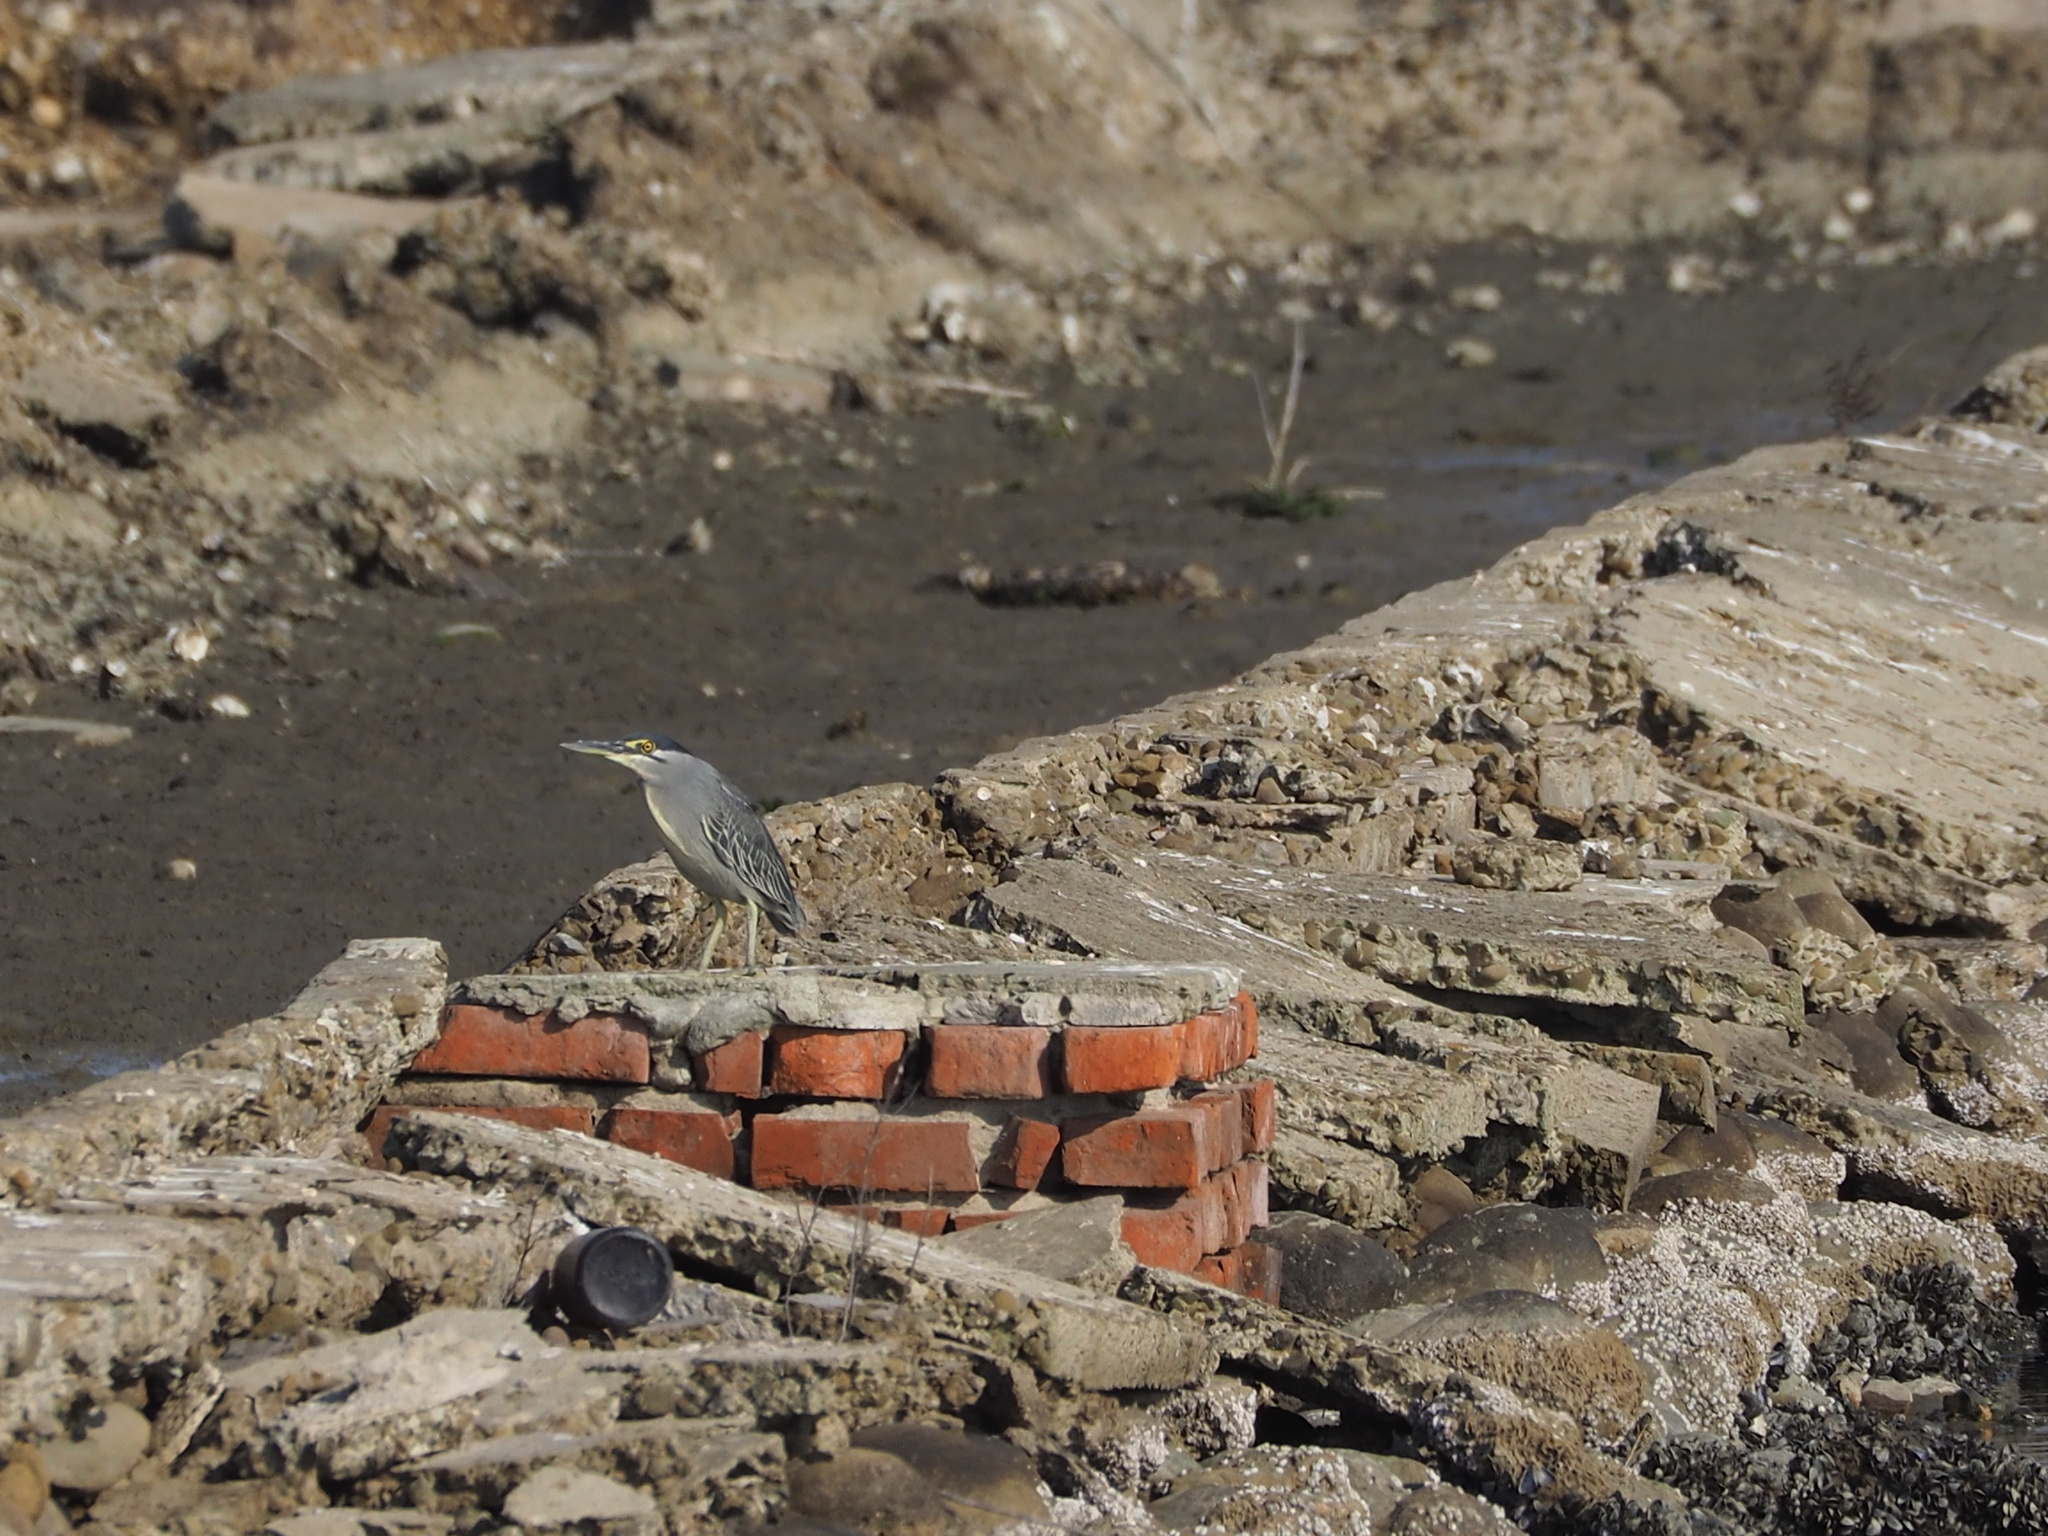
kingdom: Animalia
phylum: Chordata
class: Aves
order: Pelecaniformes
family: Ardeidae
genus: Butorides
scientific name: Butorides striata
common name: Striated heron
